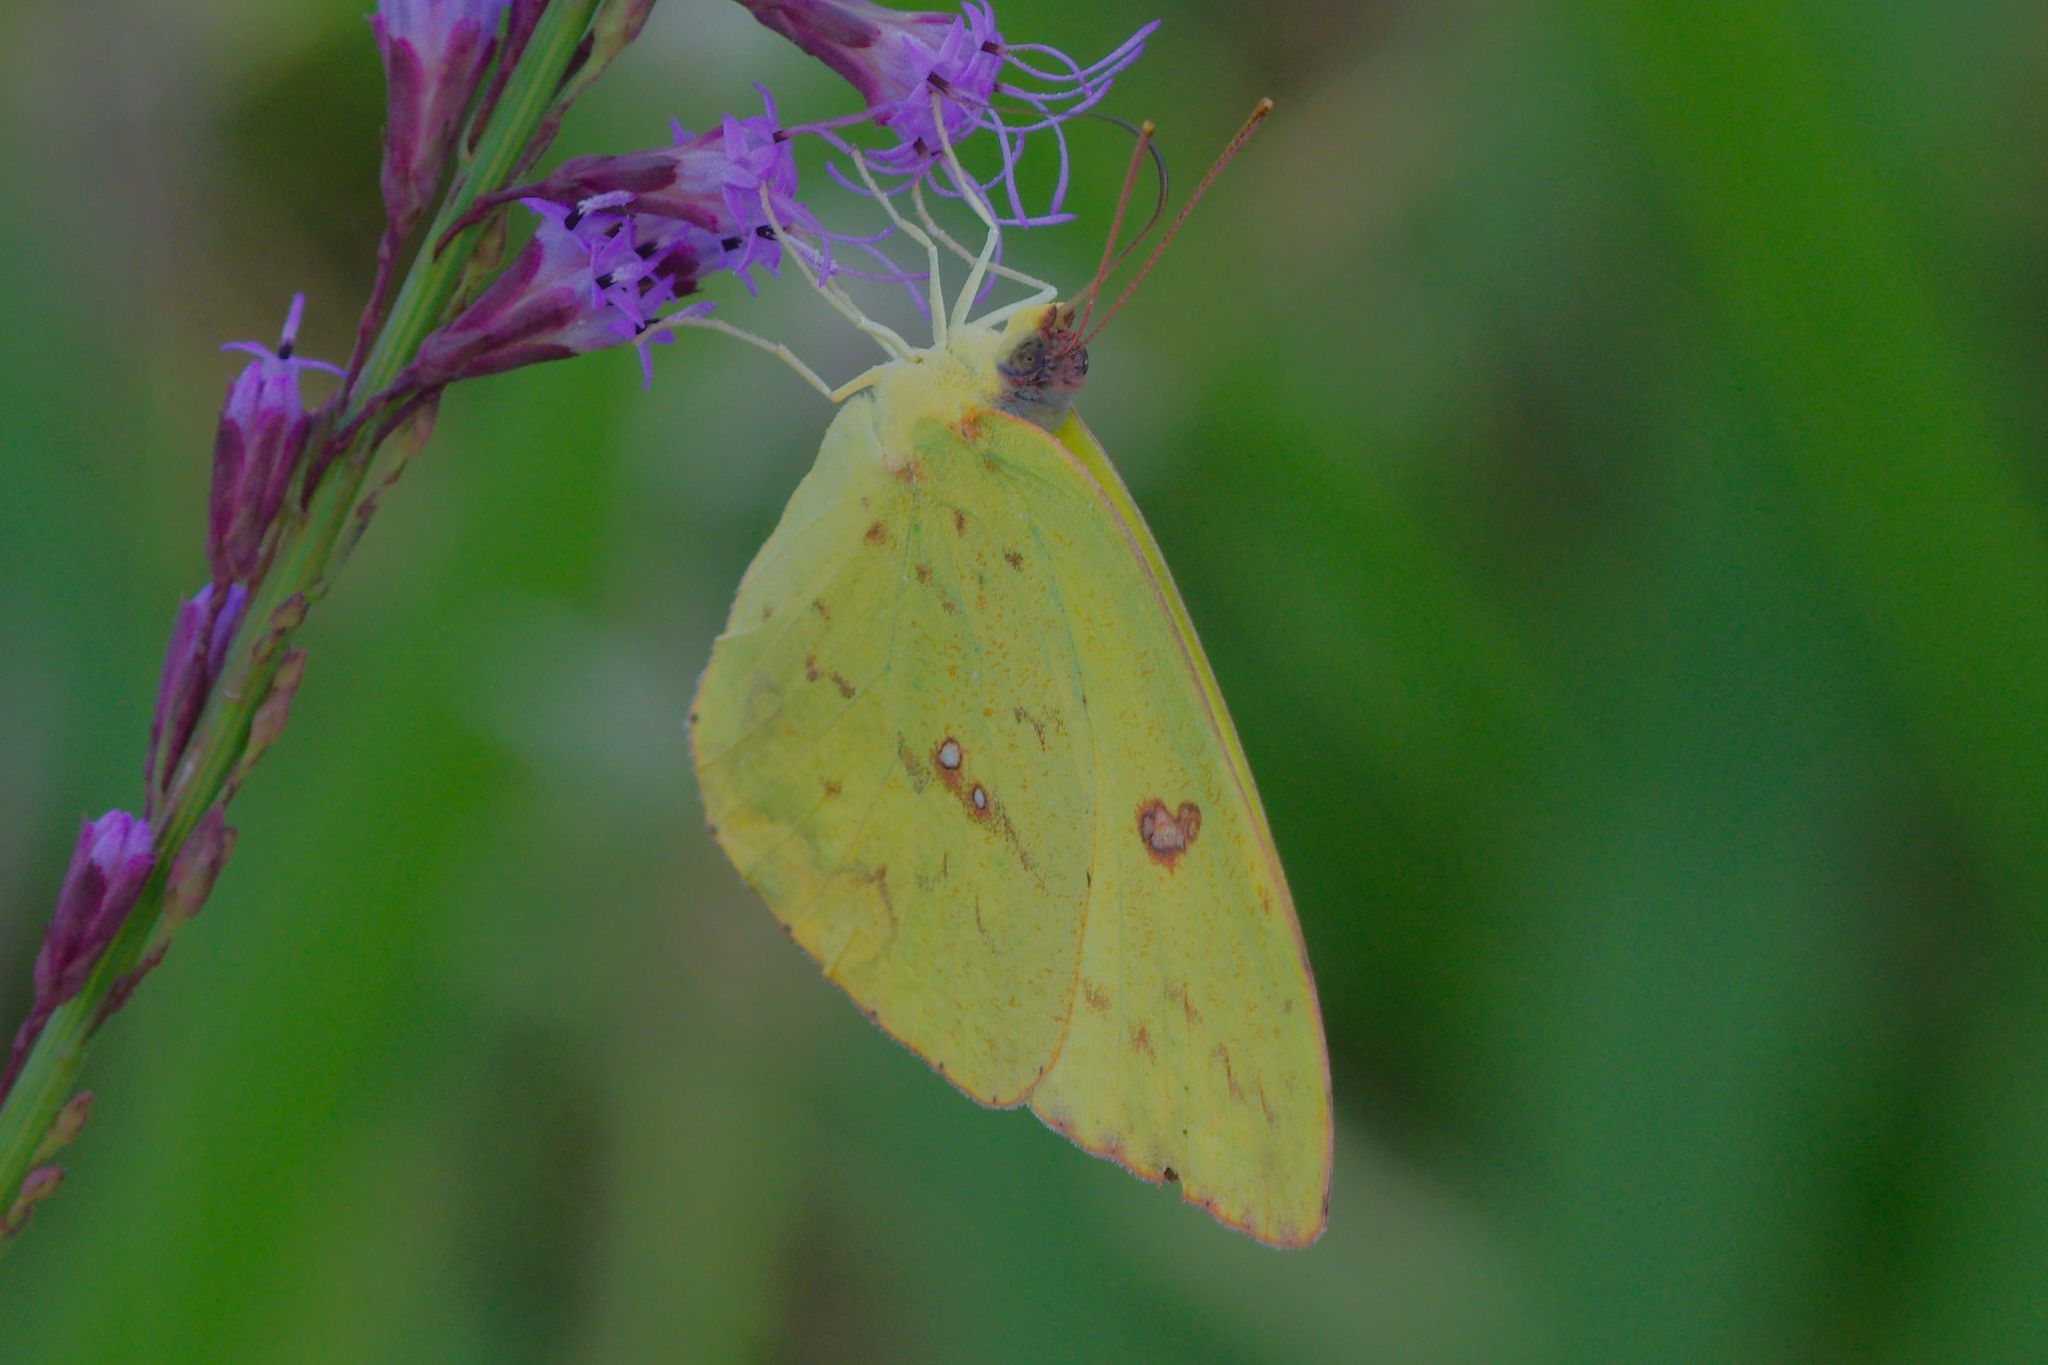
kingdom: Animalia
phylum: Arthropoda
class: Insecta
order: Lepidoptera
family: Pieridae
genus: Phoebis
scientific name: Phoebis sennae
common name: Cloudless sulphur
